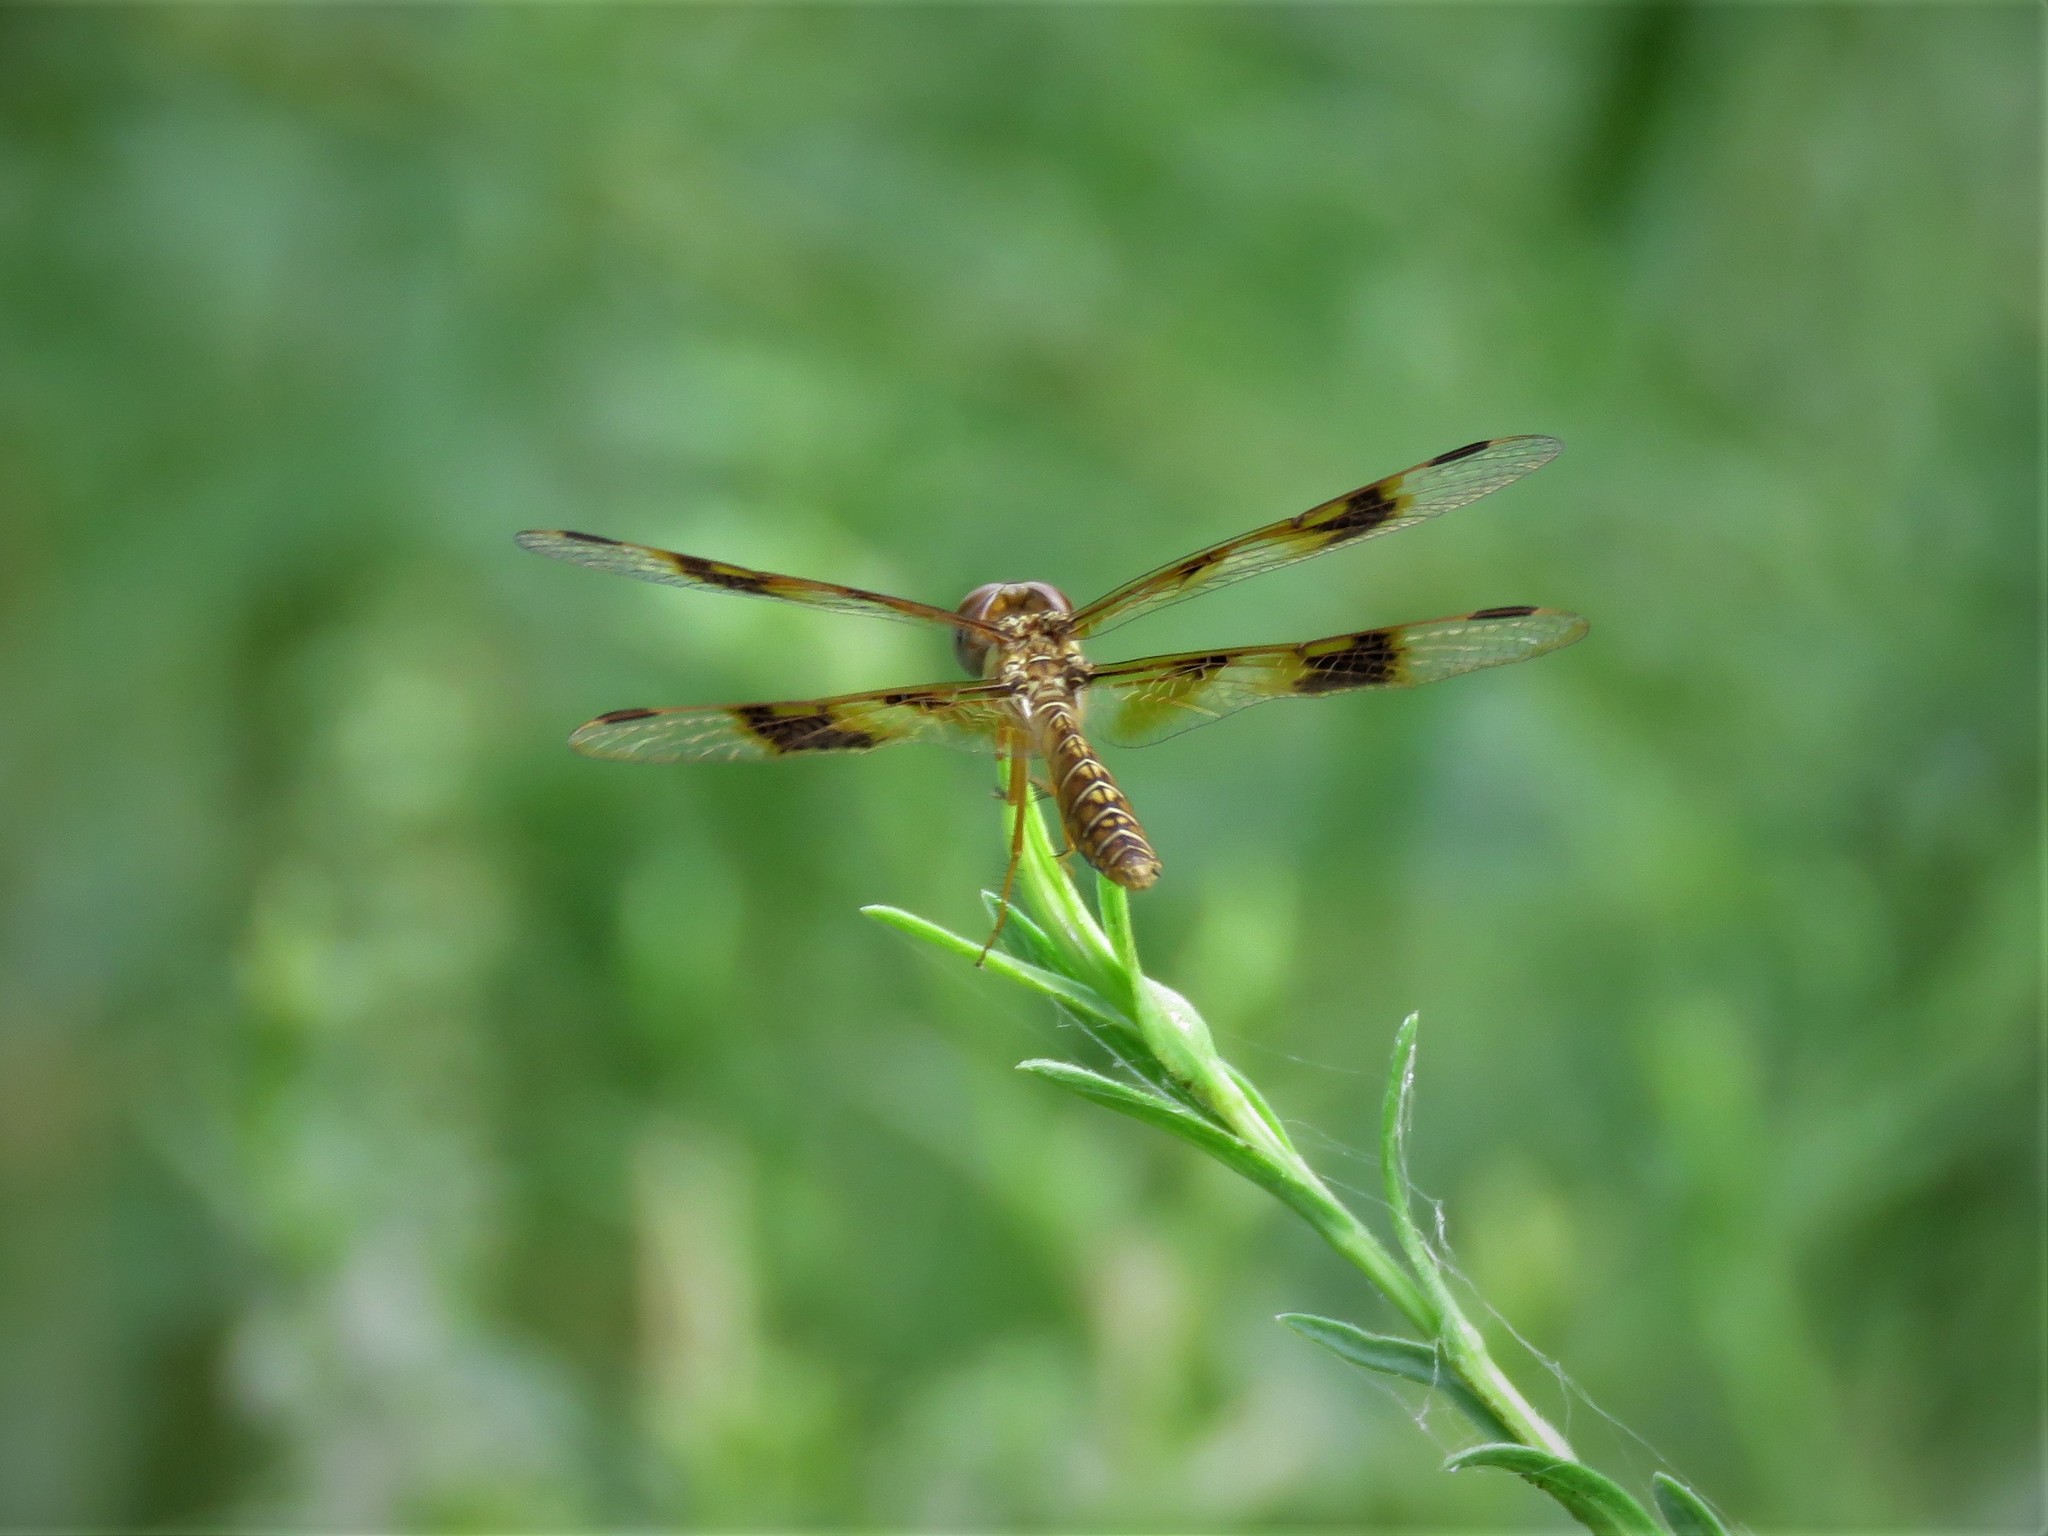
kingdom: Animalia
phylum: Arthropoda
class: Insecta
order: Odonata
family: Libellulidae
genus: Perithemis
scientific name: Perithemis tenera
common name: Eastern amberwing
